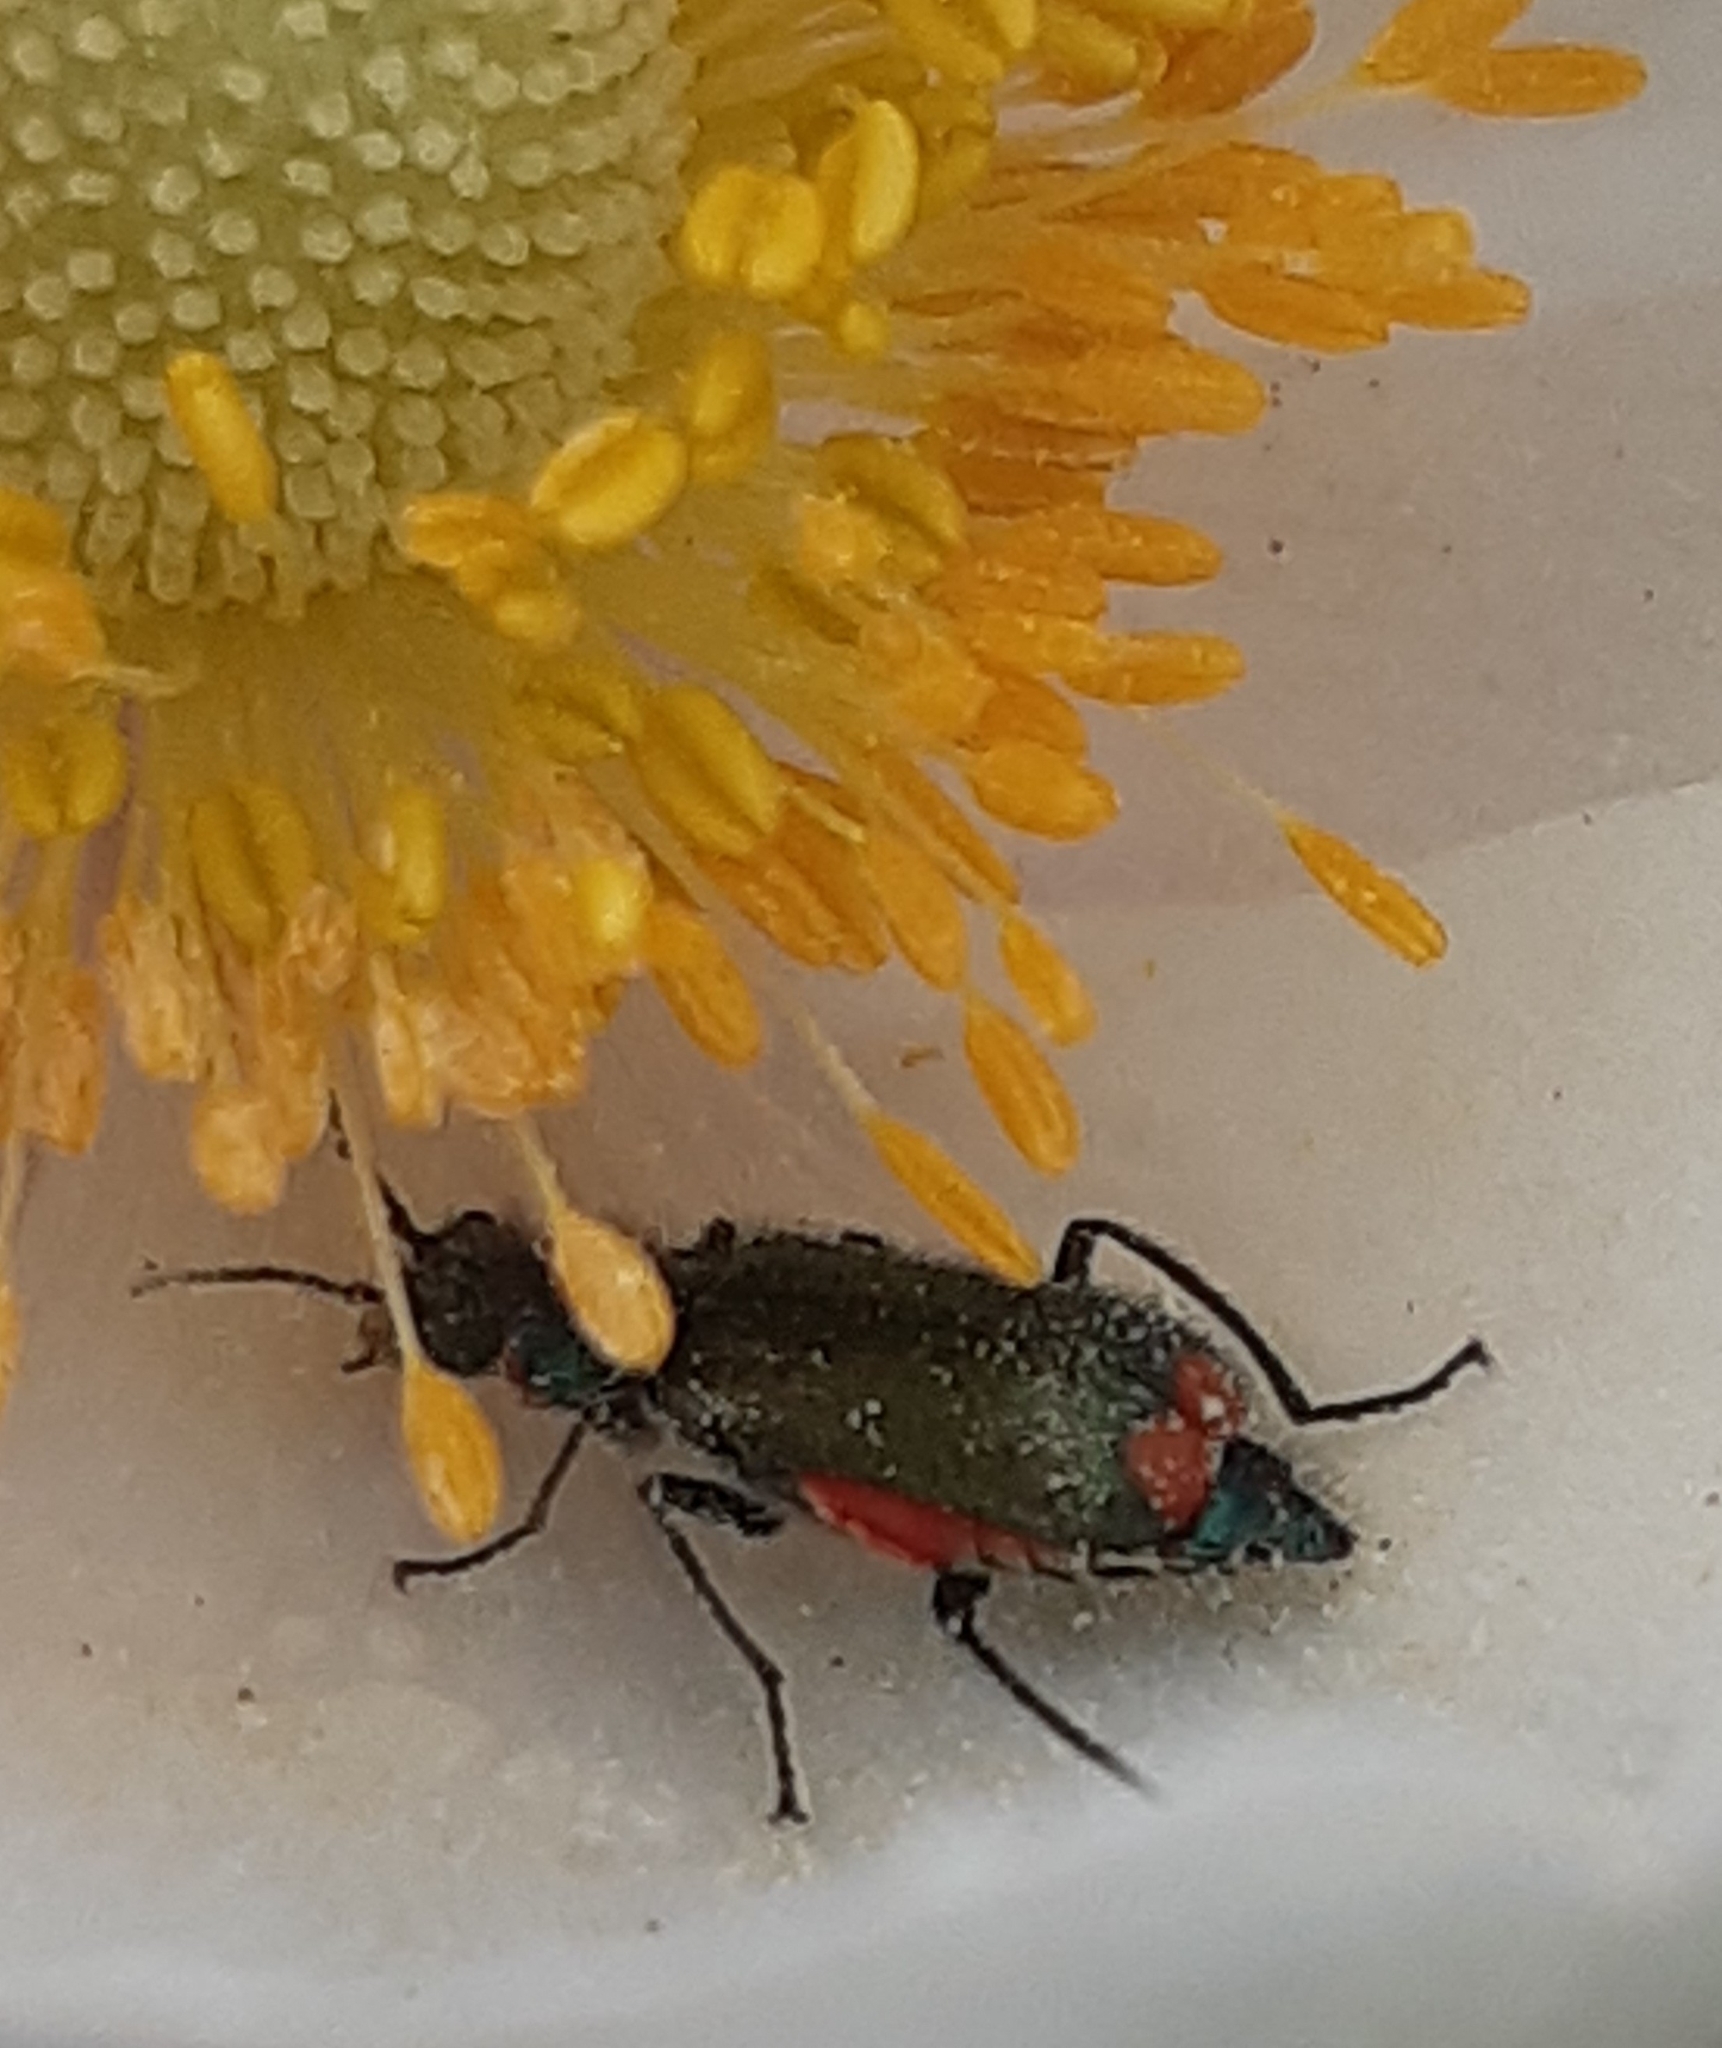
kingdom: Animalia
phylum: Arthropoda
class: Insecta
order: Coleoptera
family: Melyridae
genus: Malachius
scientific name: Malachius bipustulatus
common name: Malachite beetle
